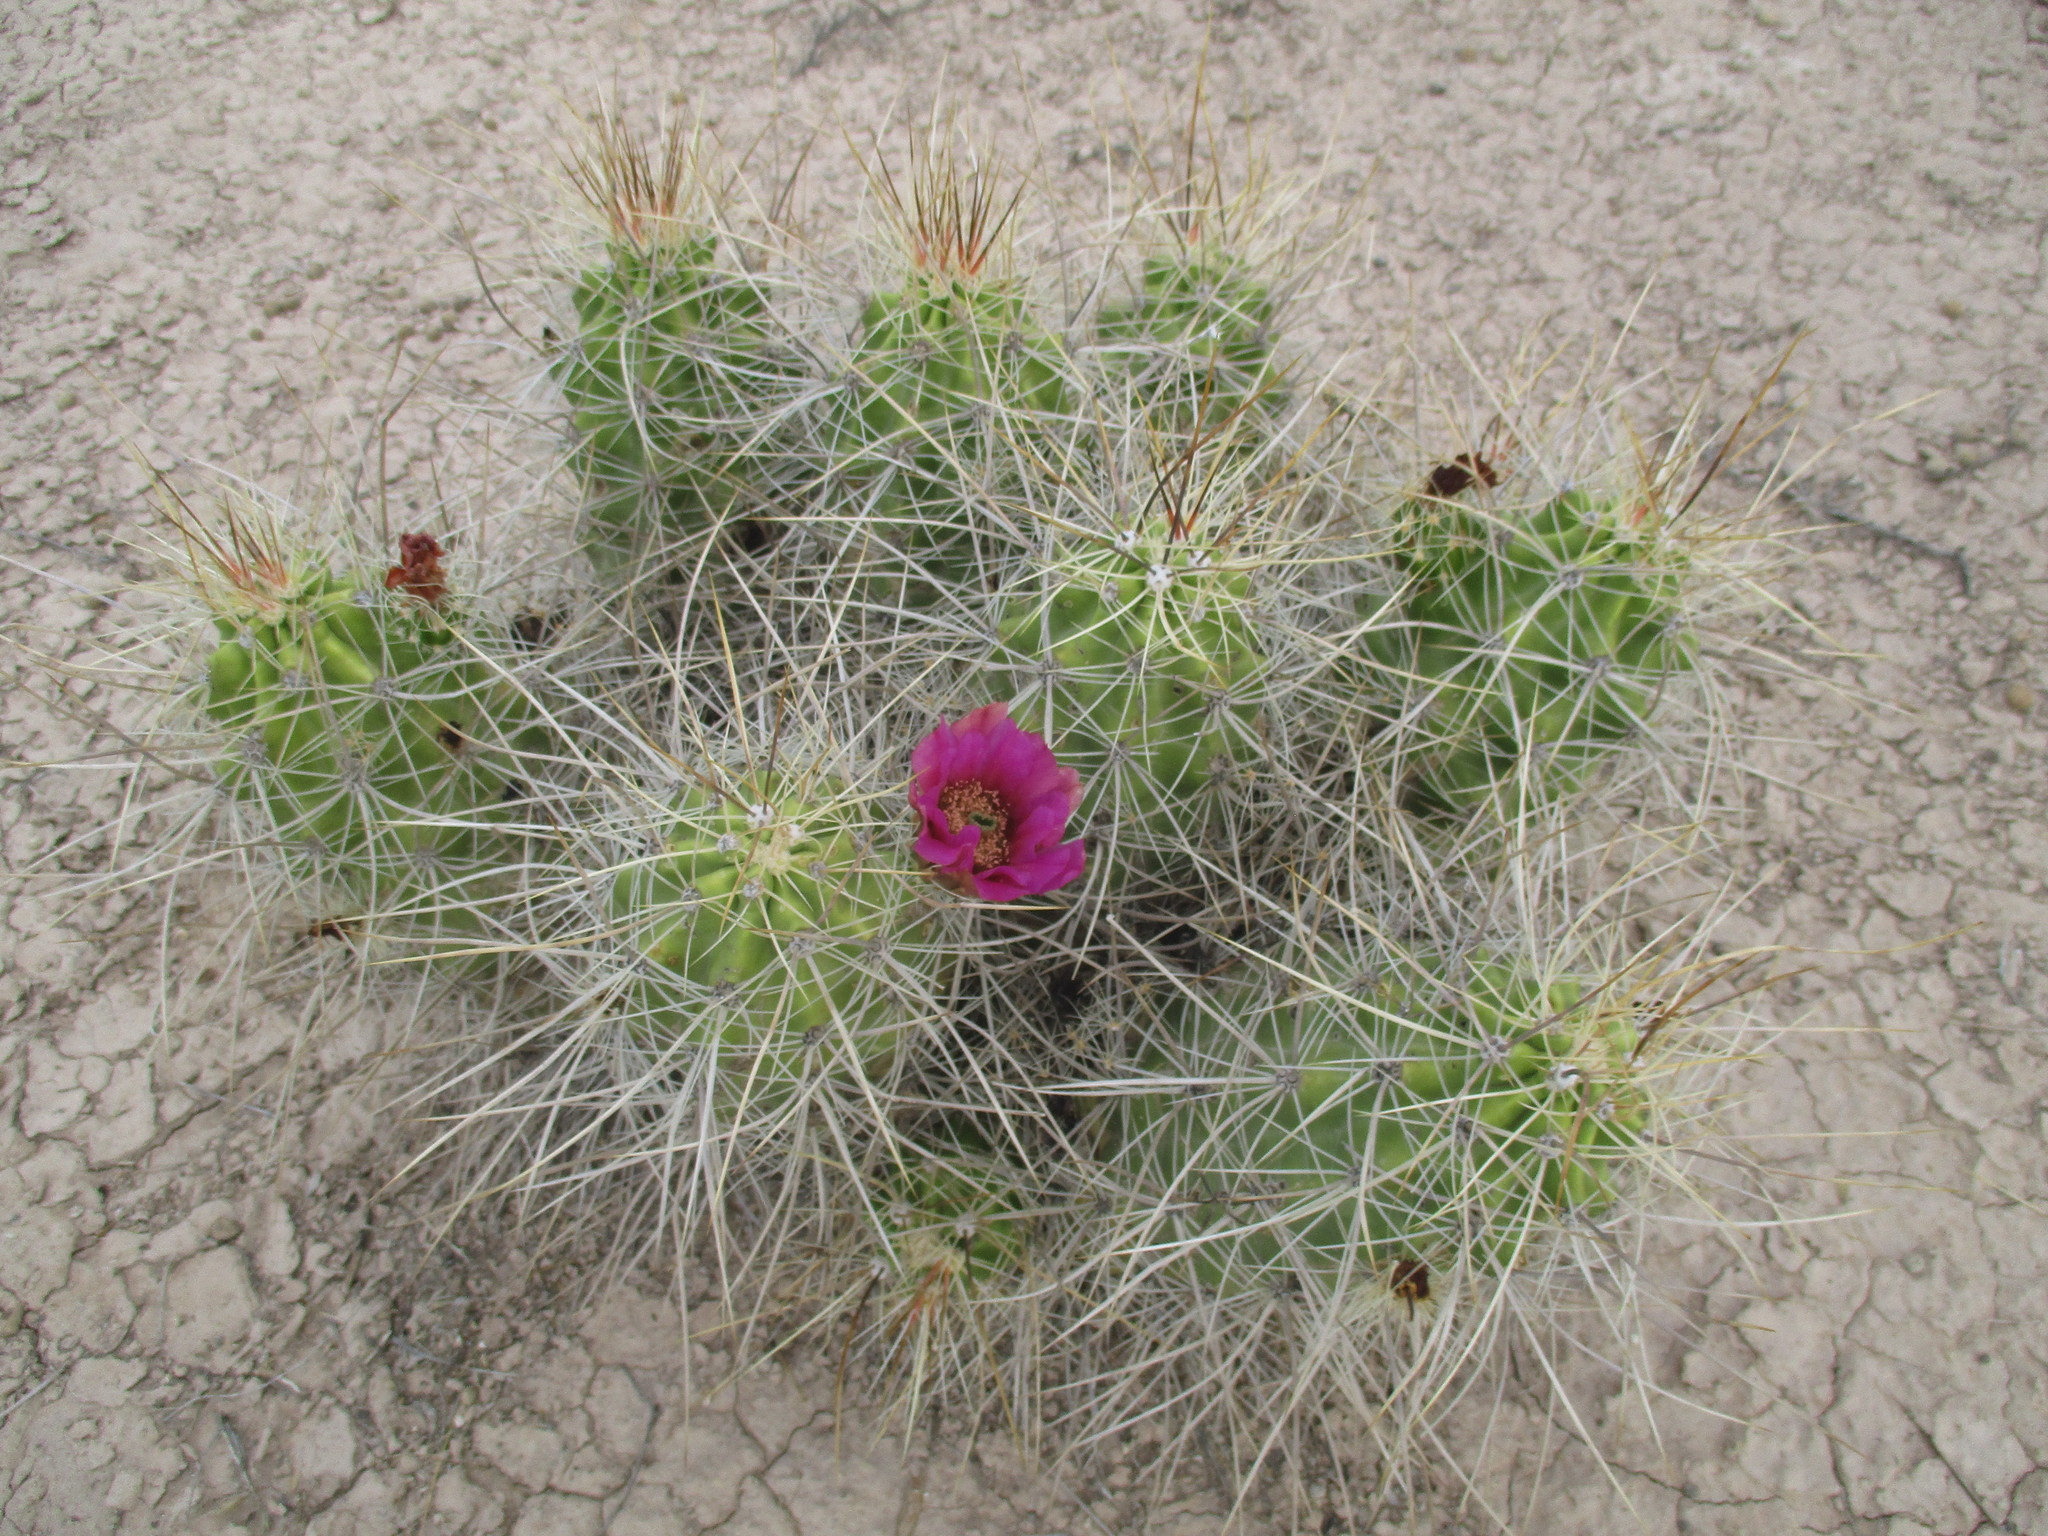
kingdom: Plantae
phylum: Tracheophyta
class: Magnoliopsida
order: Caryophyllales
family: Cactaceae
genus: Echinocereus
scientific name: Echinocereus enneacanthus
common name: Pitaya
